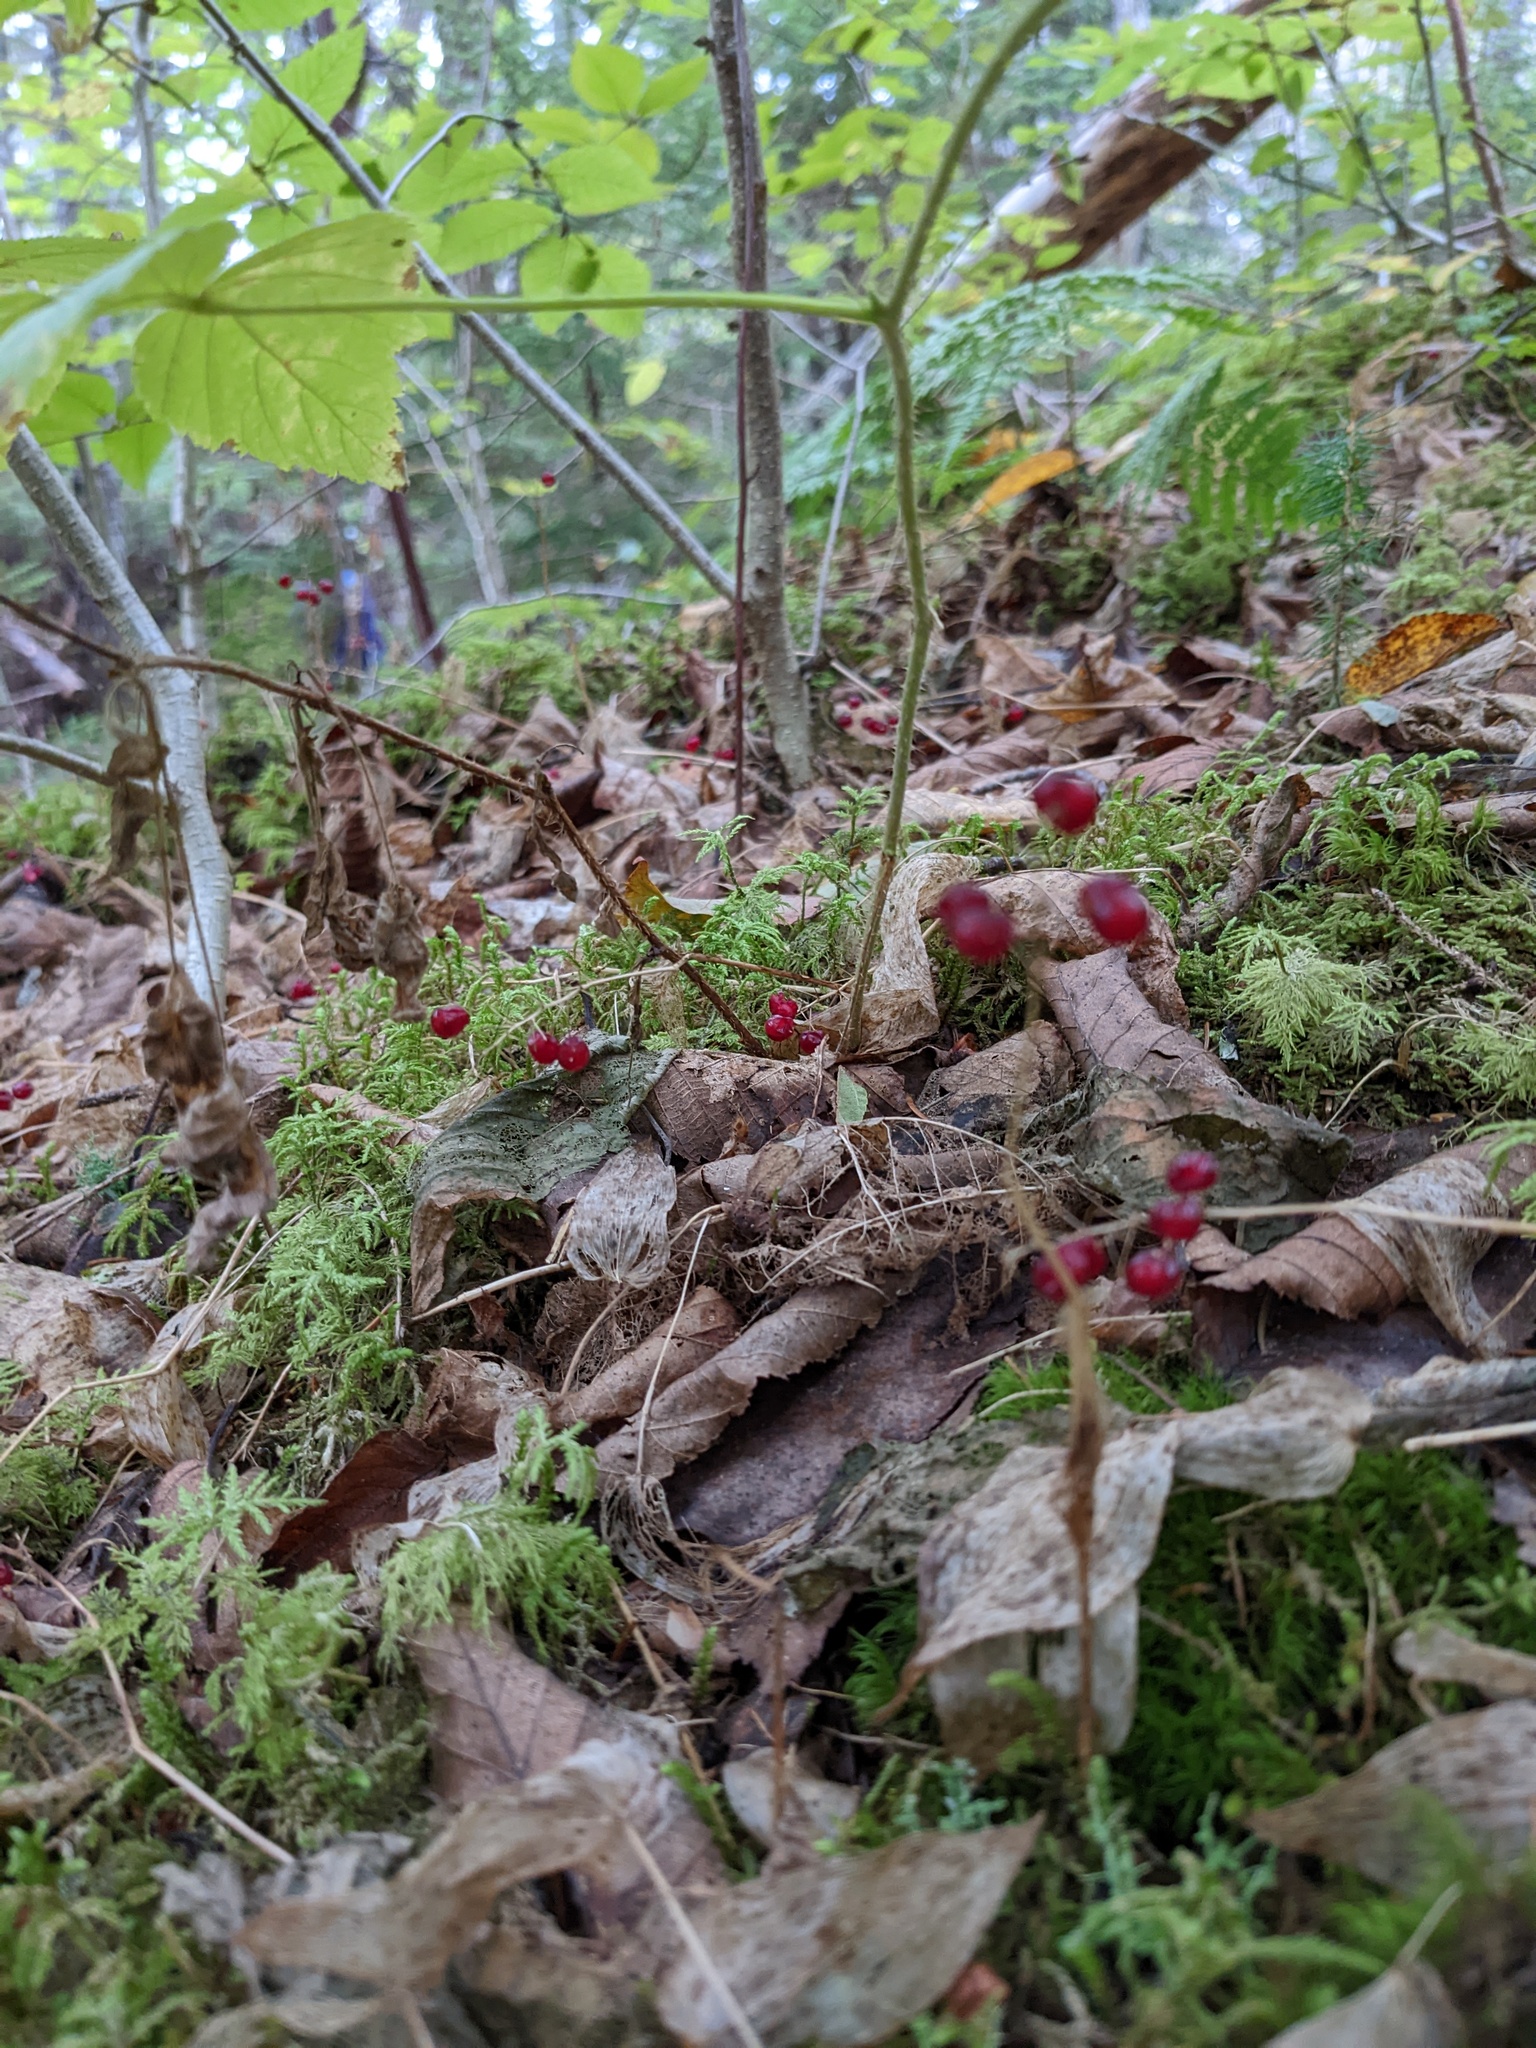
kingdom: Plantae
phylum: Tracheophyta
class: Liliopsida
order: Asparagales
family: Asparagaceae
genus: Maianthemum
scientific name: Maianthemum canadense
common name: False lily-of-the-valley
